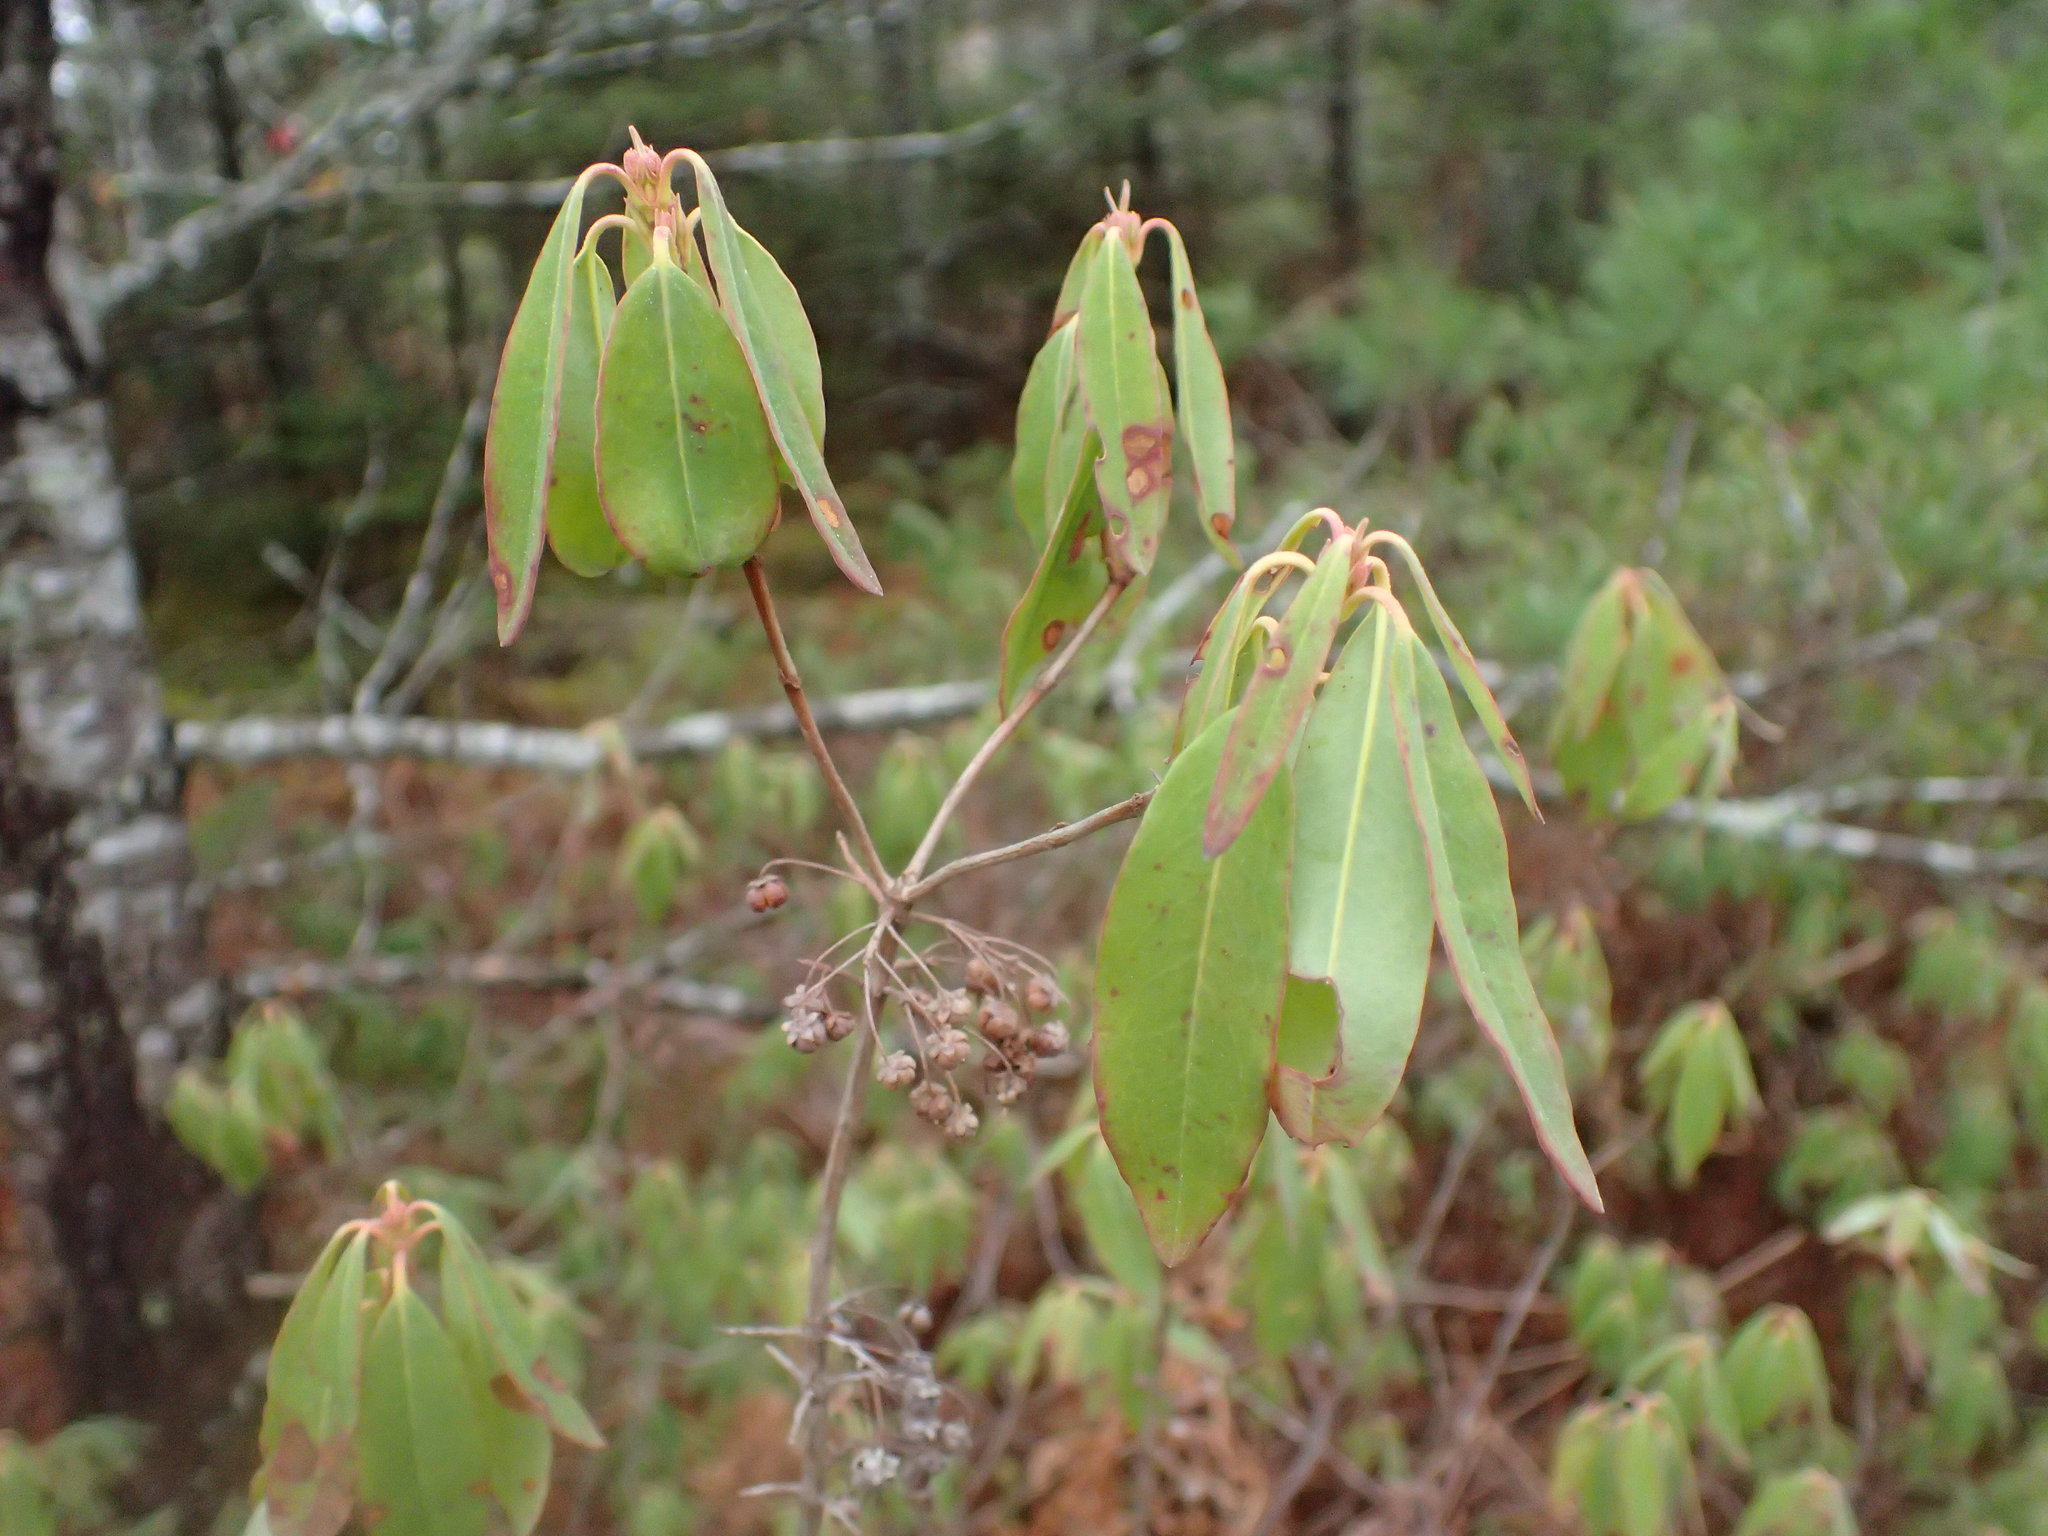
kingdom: Plantae
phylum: Tracheophyta
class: Magnoliopsida
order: Ericales
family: Ericaceae
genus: Kalmia
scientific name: Kalmia angustifolia
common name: Sheep-laurel
